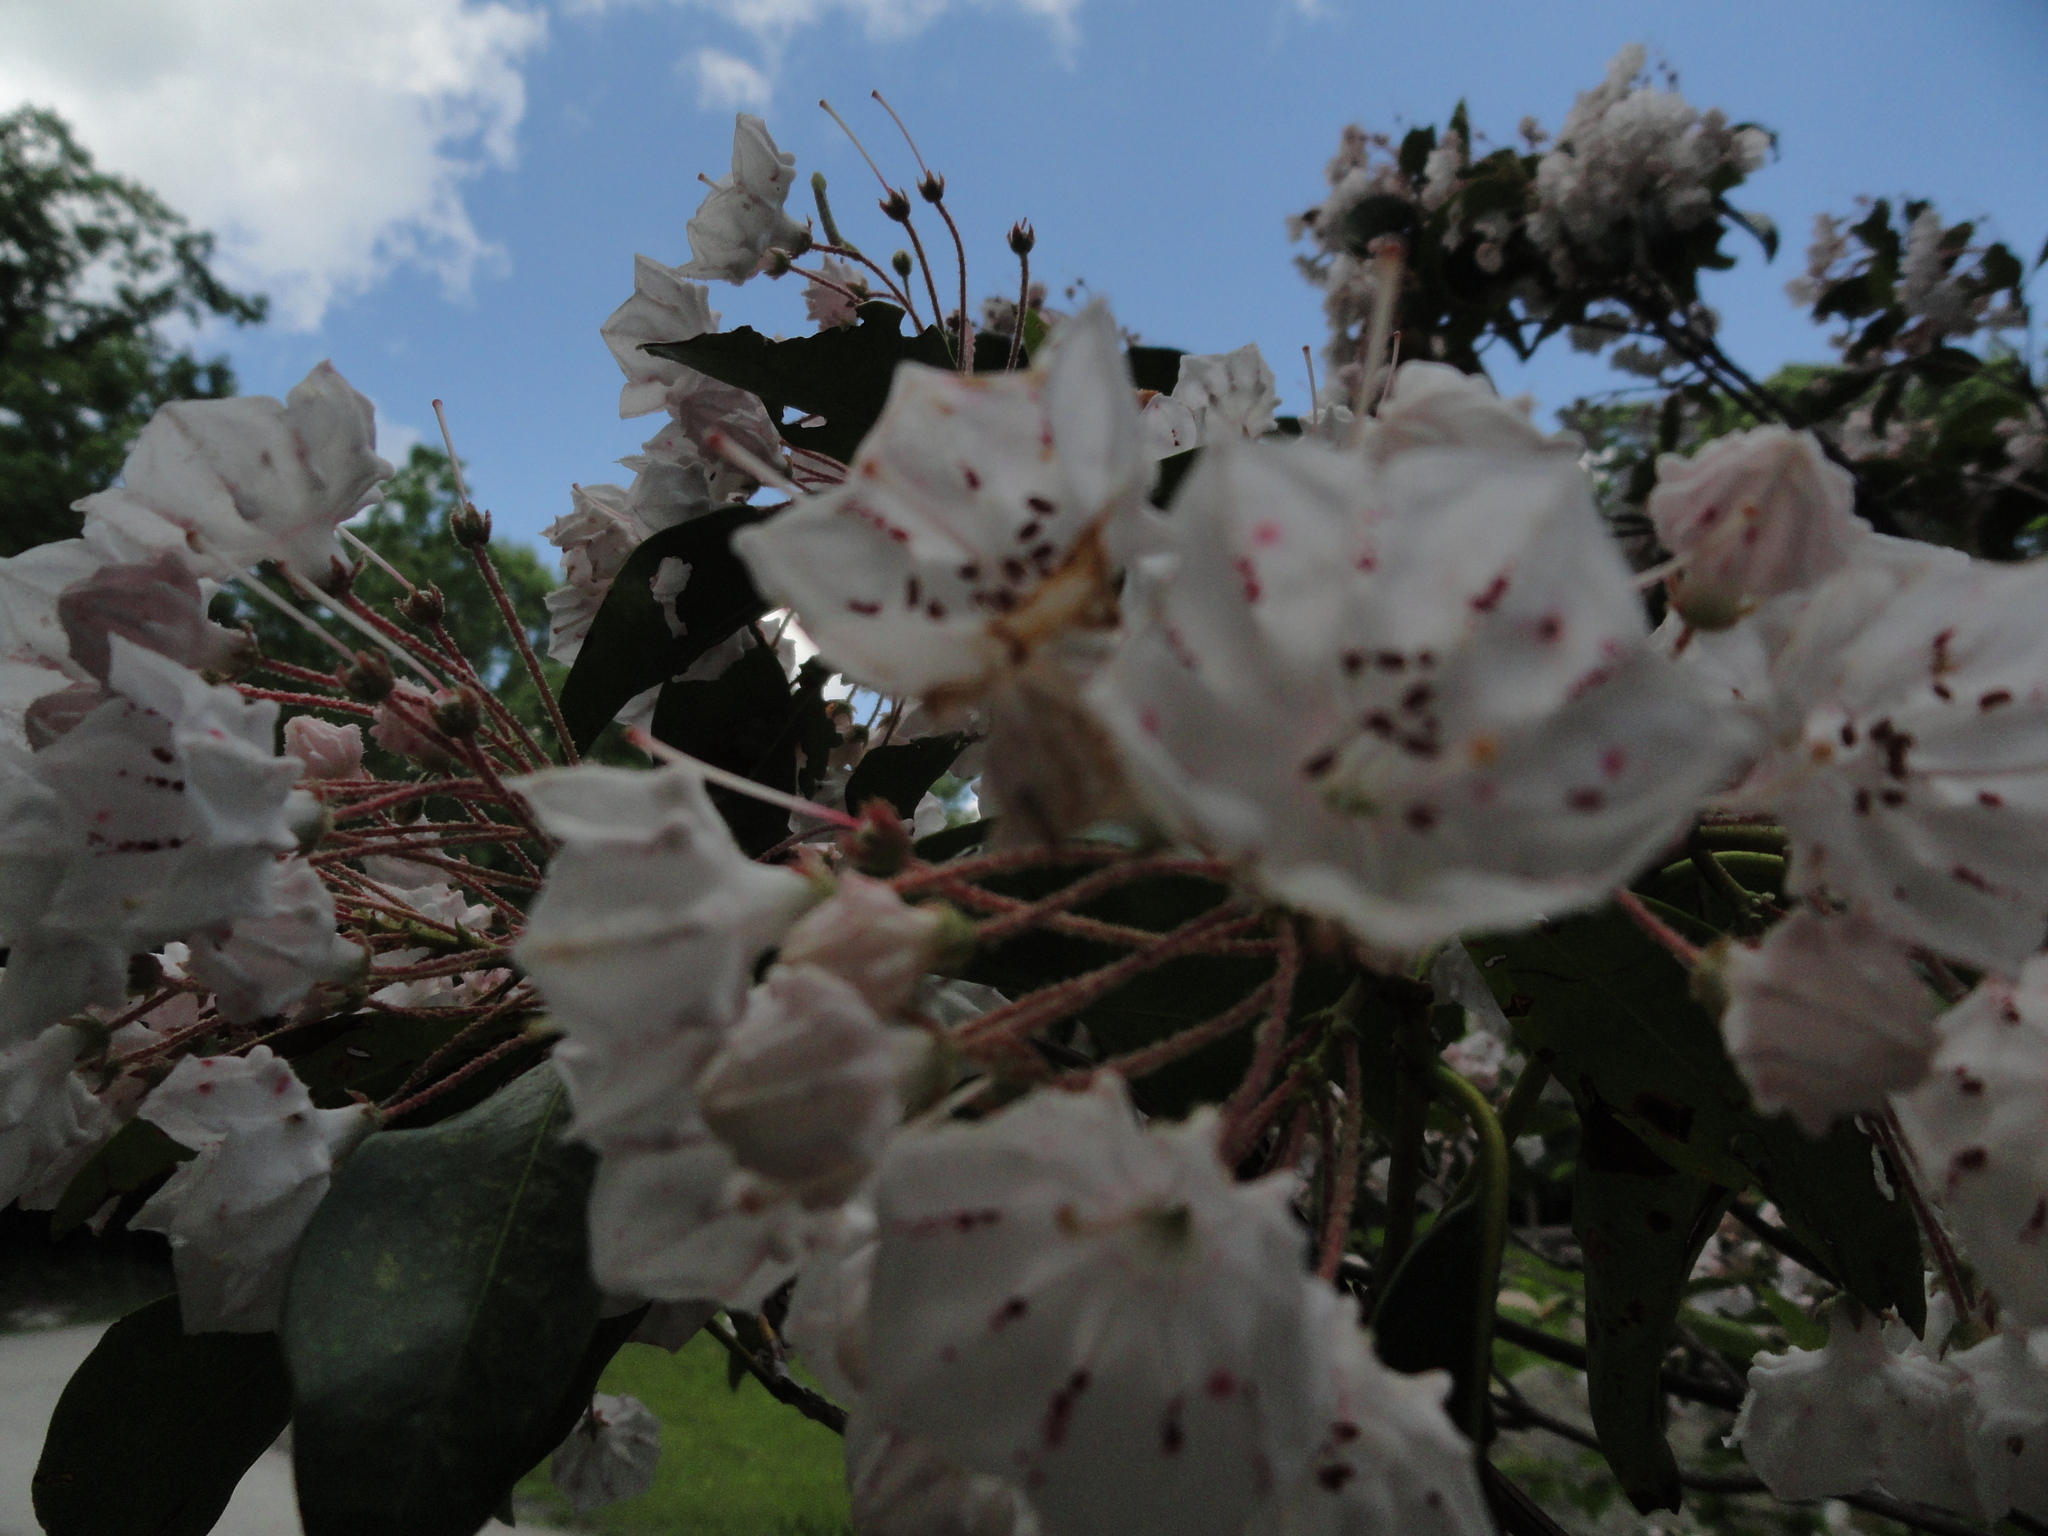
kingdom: Plantae
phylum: Tracheophyta
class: Magnoliopsida
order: Ericales
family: Ericaceae
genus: Kalmia
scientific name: Kalmia latifolia
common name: Mountain-laurel
